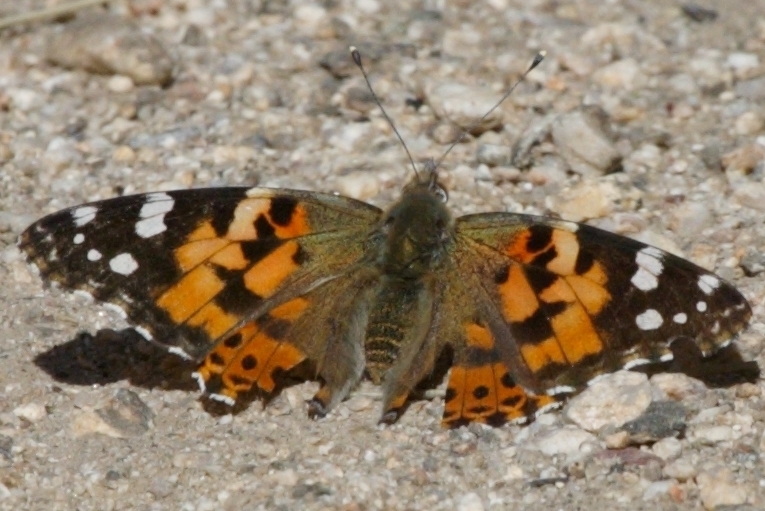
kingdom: Animalia
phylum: Arthropoda
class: Insecta
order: Lepidoptera
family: Nymphalidae
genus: Vanessa
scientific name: Vanessa cardui
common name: Painted lady
